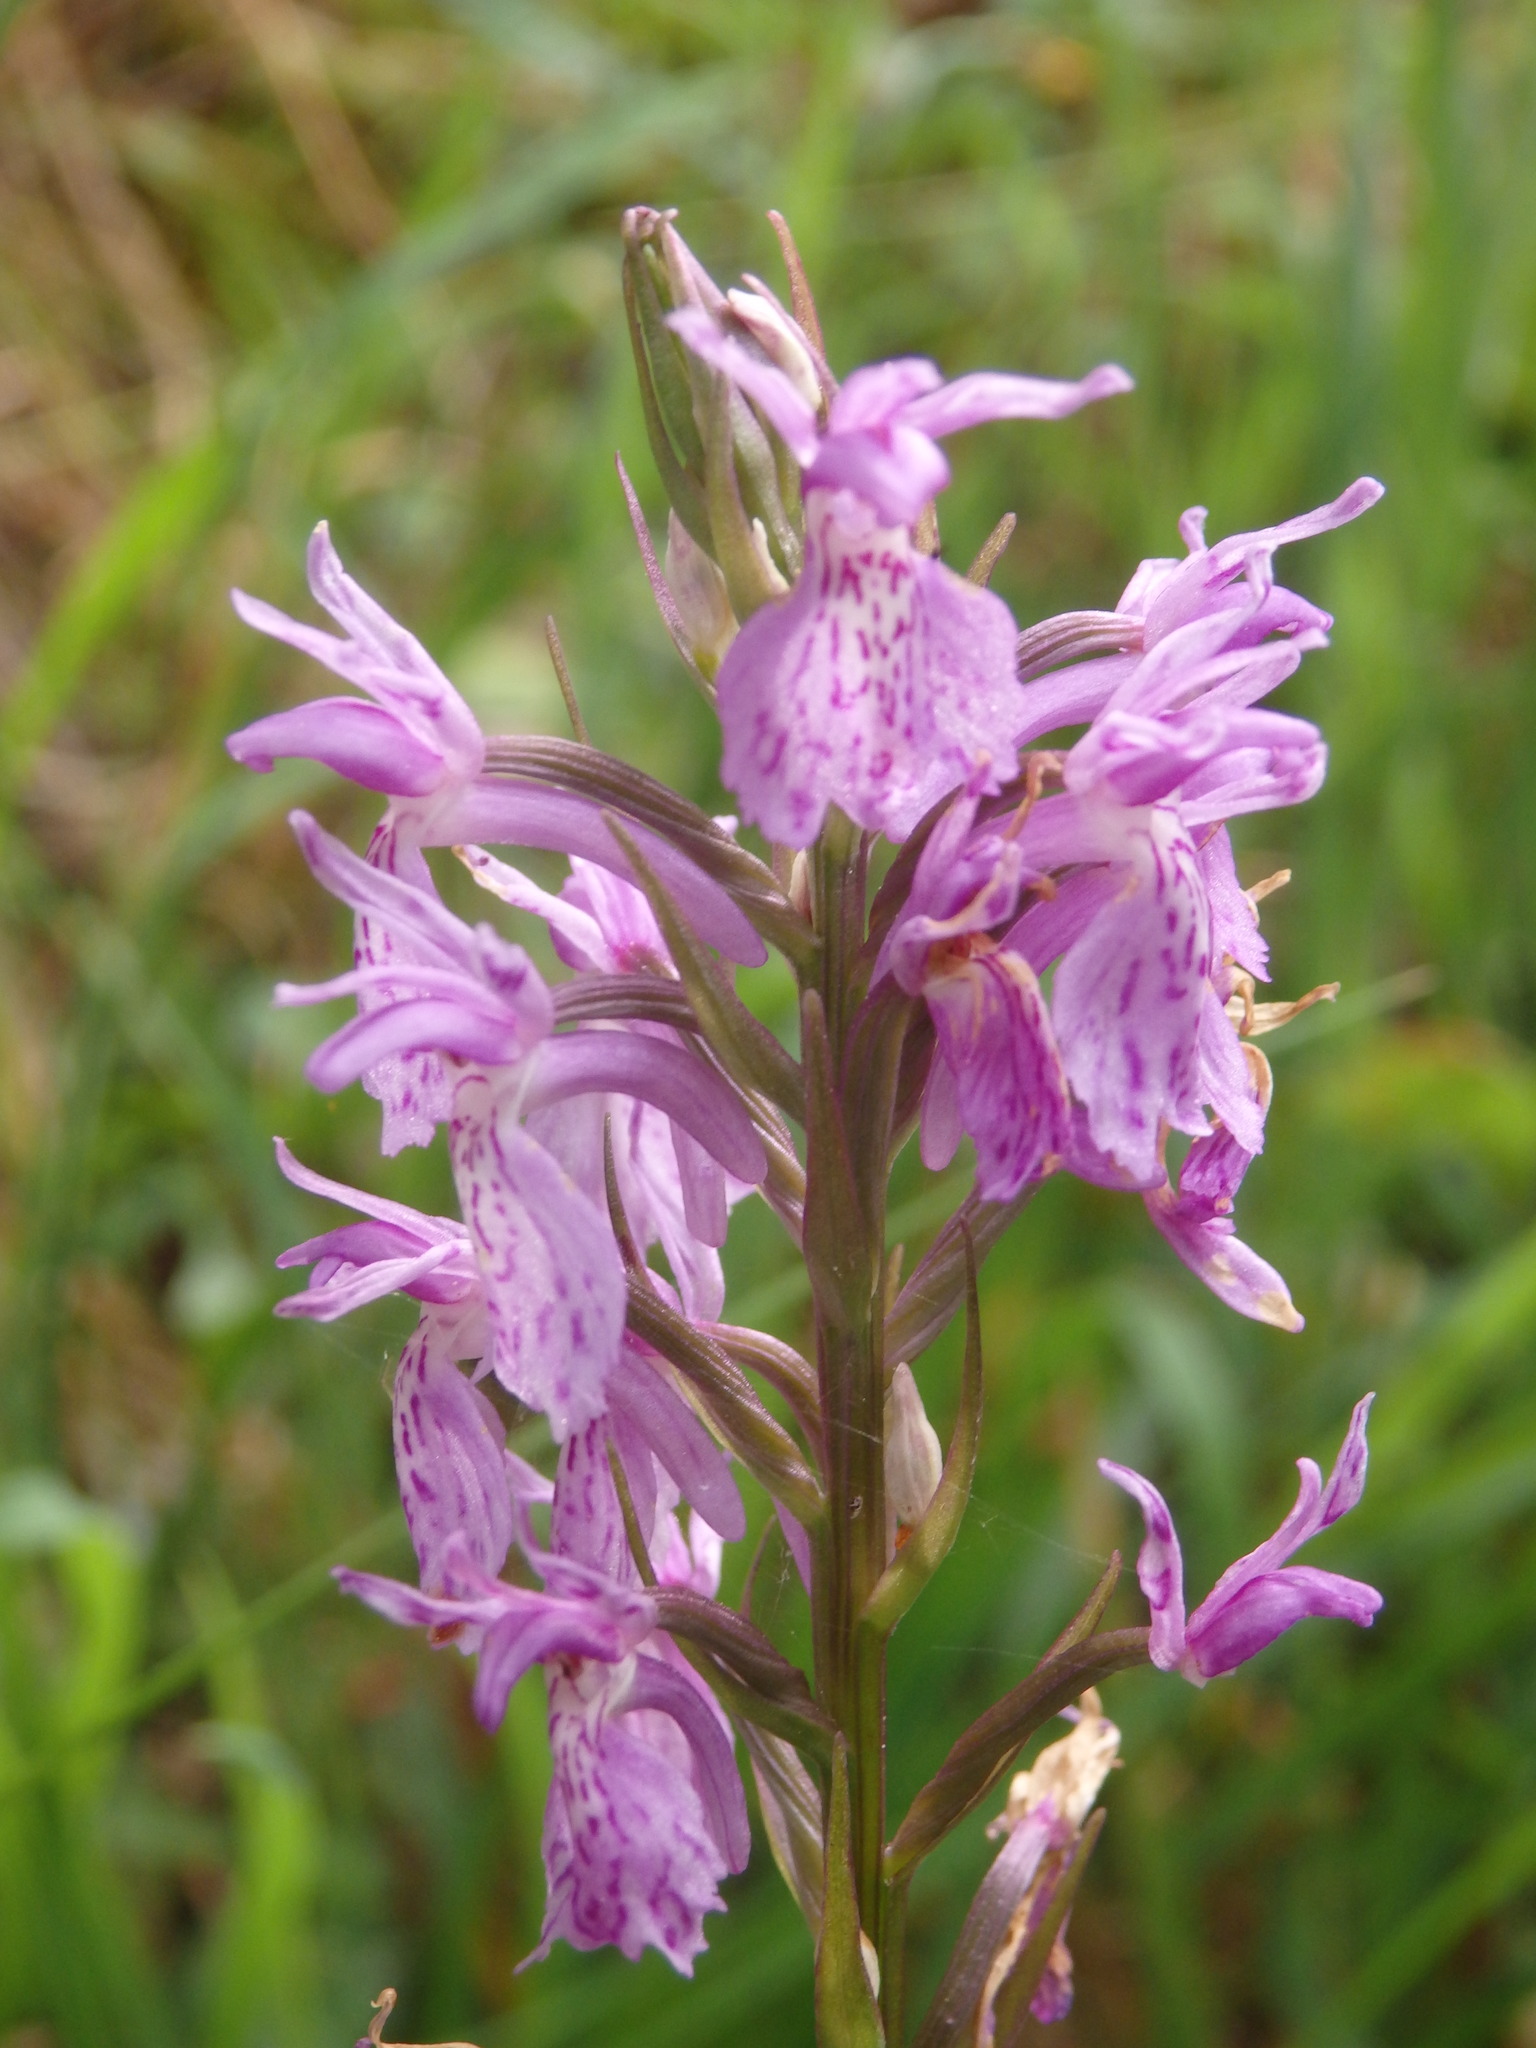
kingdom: Plantae
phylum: Tracheophyta
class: Liliopsida
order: Asparagales
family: Orchidaceae
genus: Dactylorhiza
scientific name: Dactylorhiza maculata
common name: Heath spotted-orchid
